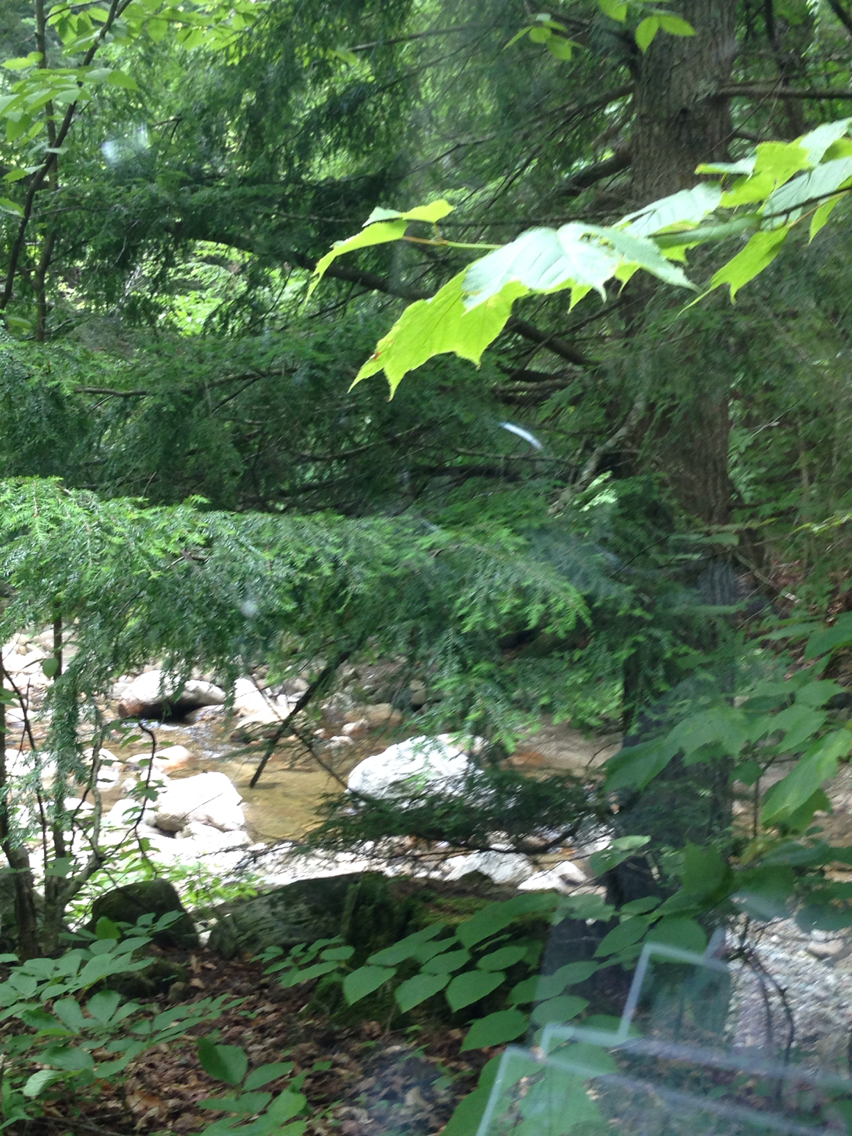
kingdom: Plantae
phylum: Tracheophyta
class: Pinopsida
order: Pinales
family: Pinaceae
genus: Tsuga
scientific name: Tsuga canadensis
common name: Eastern hemlock
